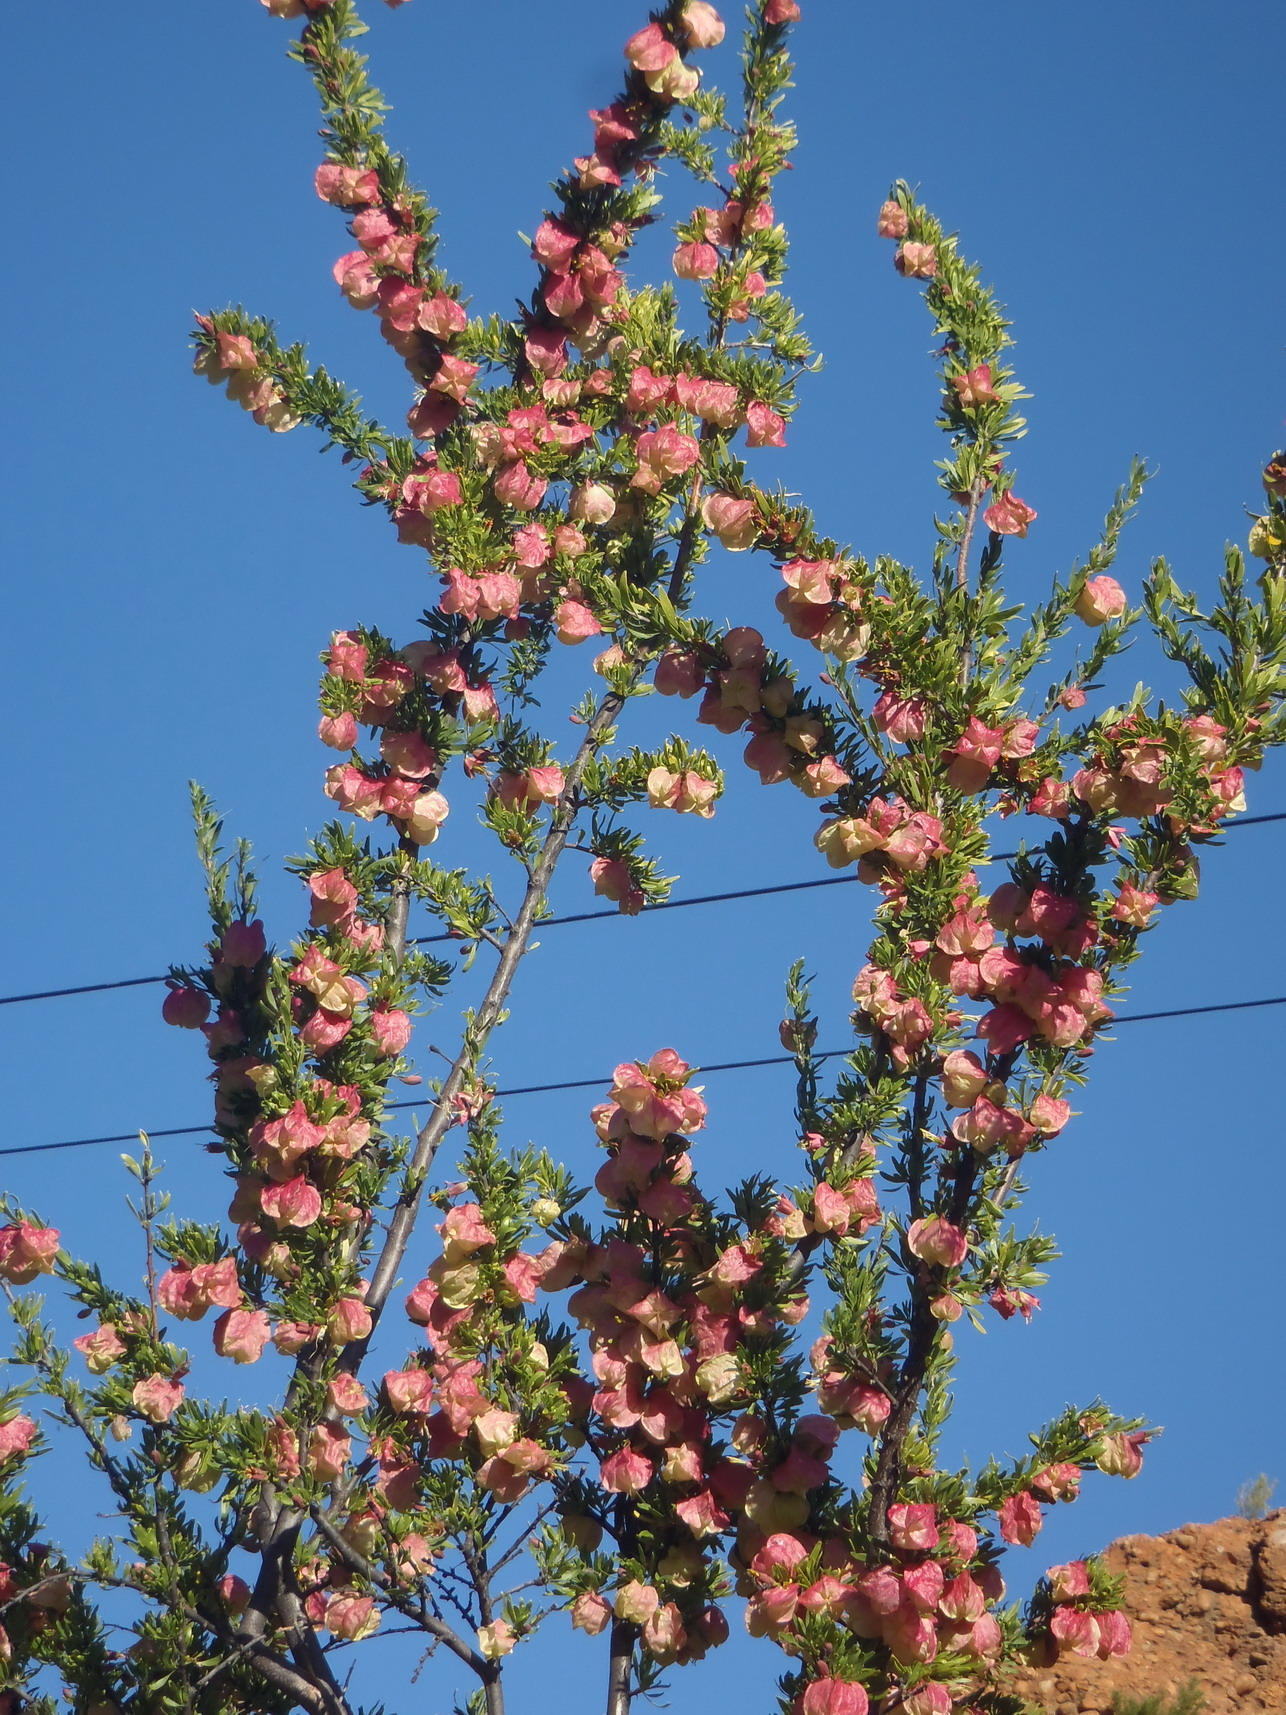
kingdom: Plantae
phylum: Tracheophyta
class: Magnoliopsida
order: Sapindales
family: Meliaceae
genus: Nymania
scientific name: Nymania capensis
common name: Chinese lantern tree
